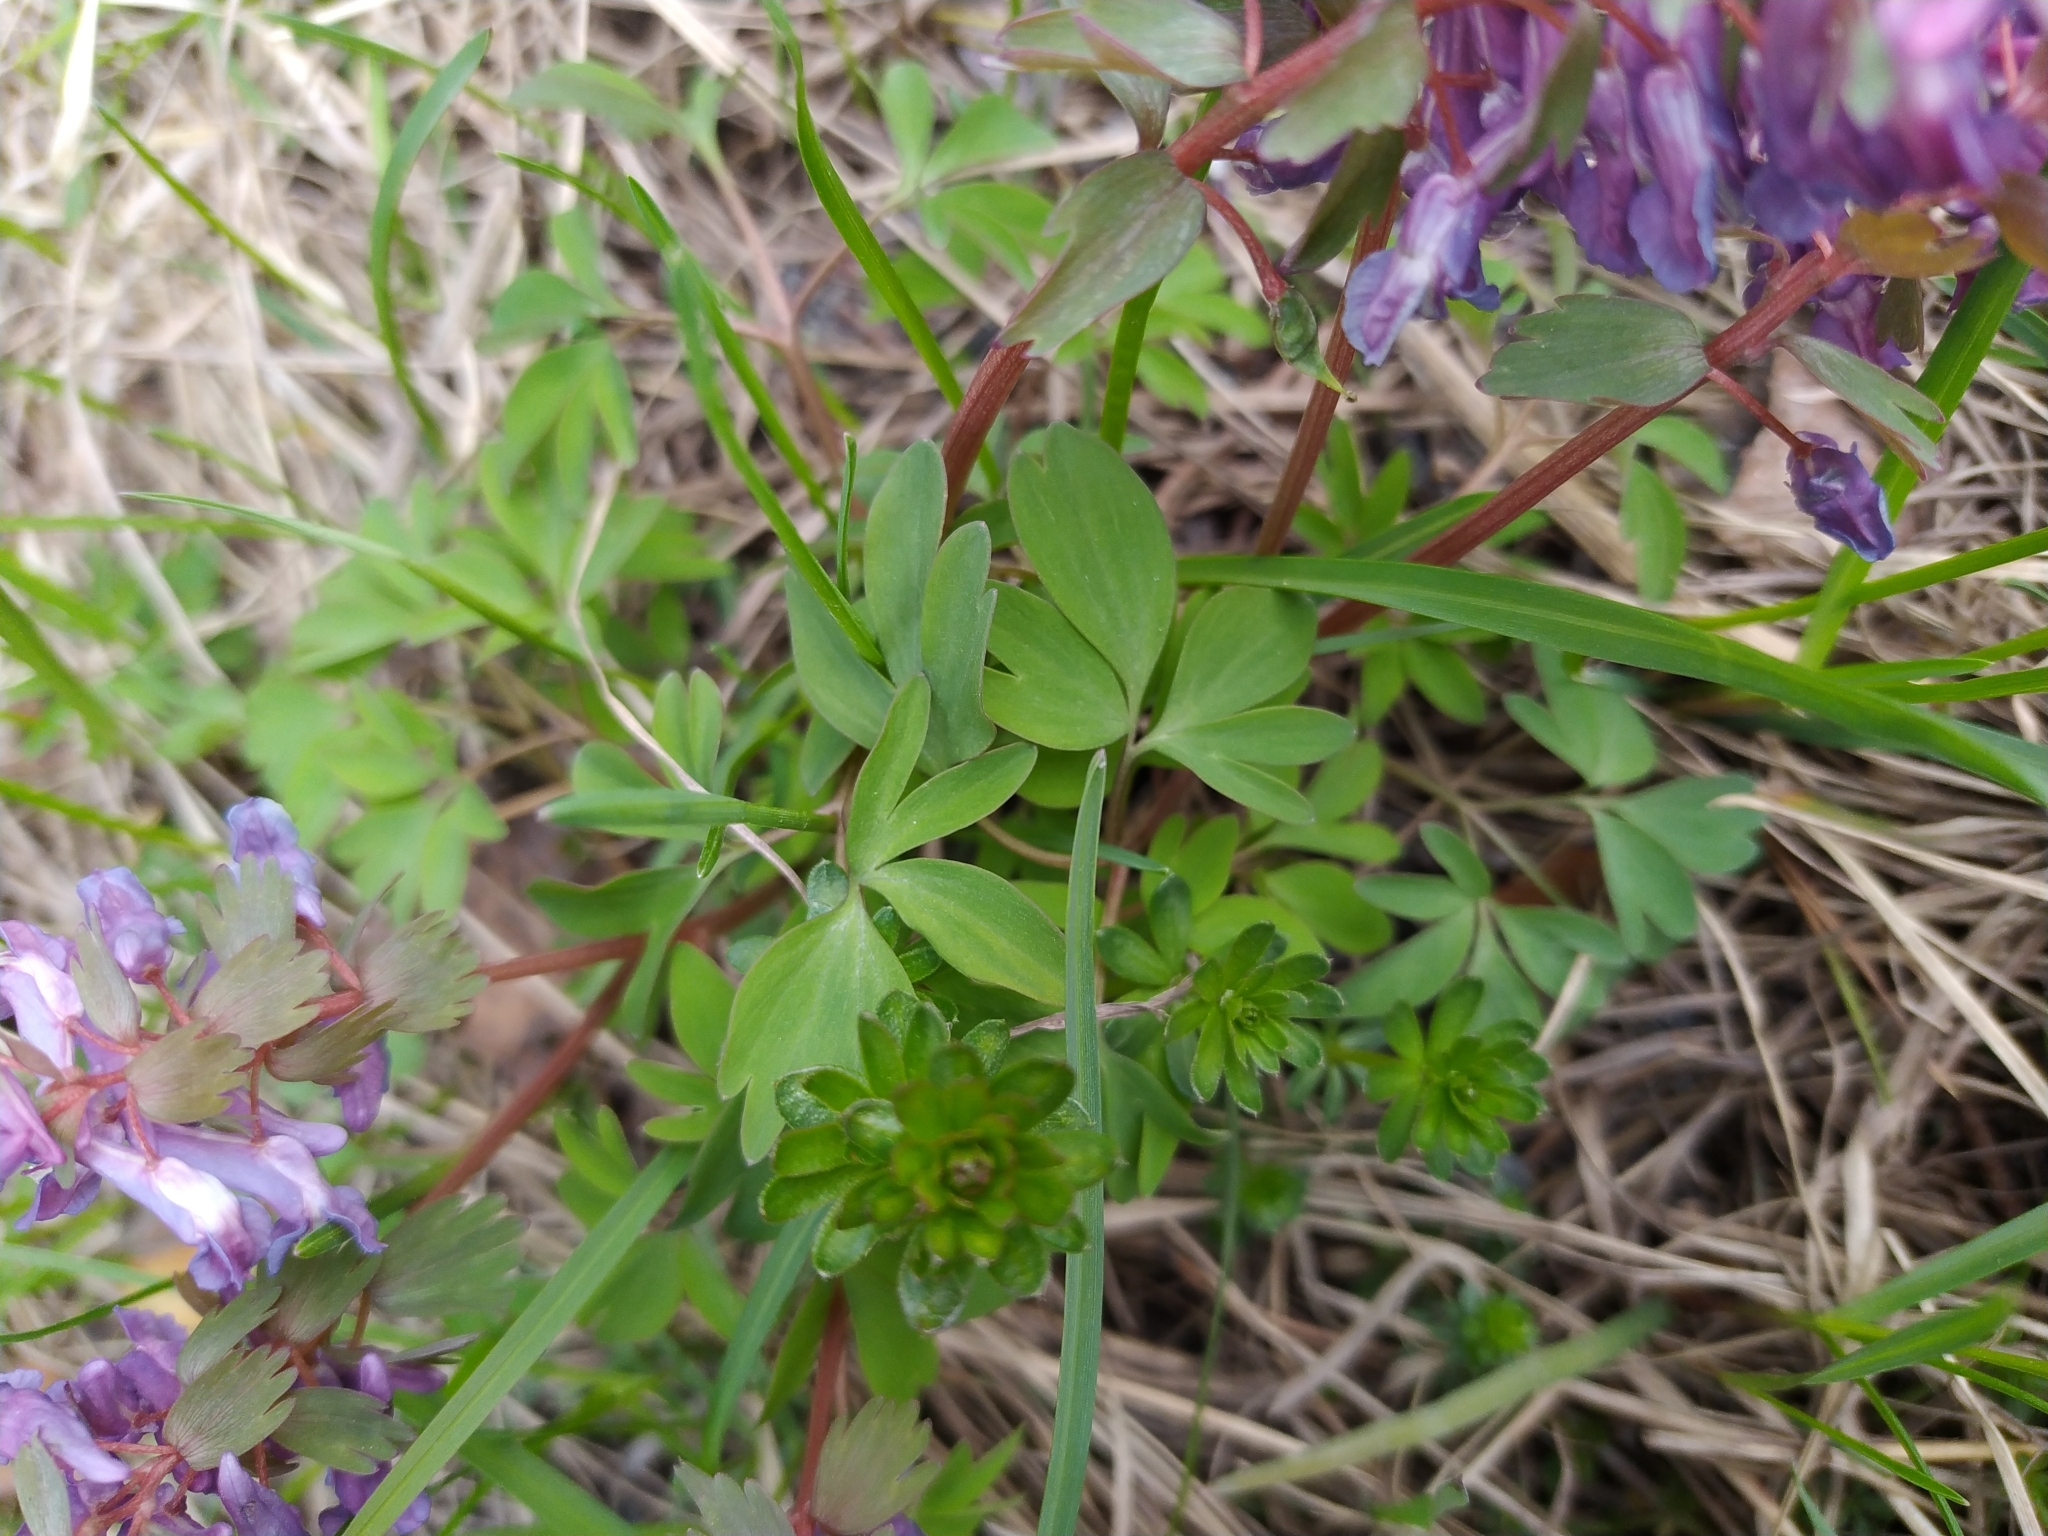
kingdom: Plantae
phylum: Tracheophyta
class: Magnoliopsida
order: Ranunculales
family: Papaveraceae
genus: Corydalis
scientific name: Corydalis solida
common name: Bird-in-a-bush
